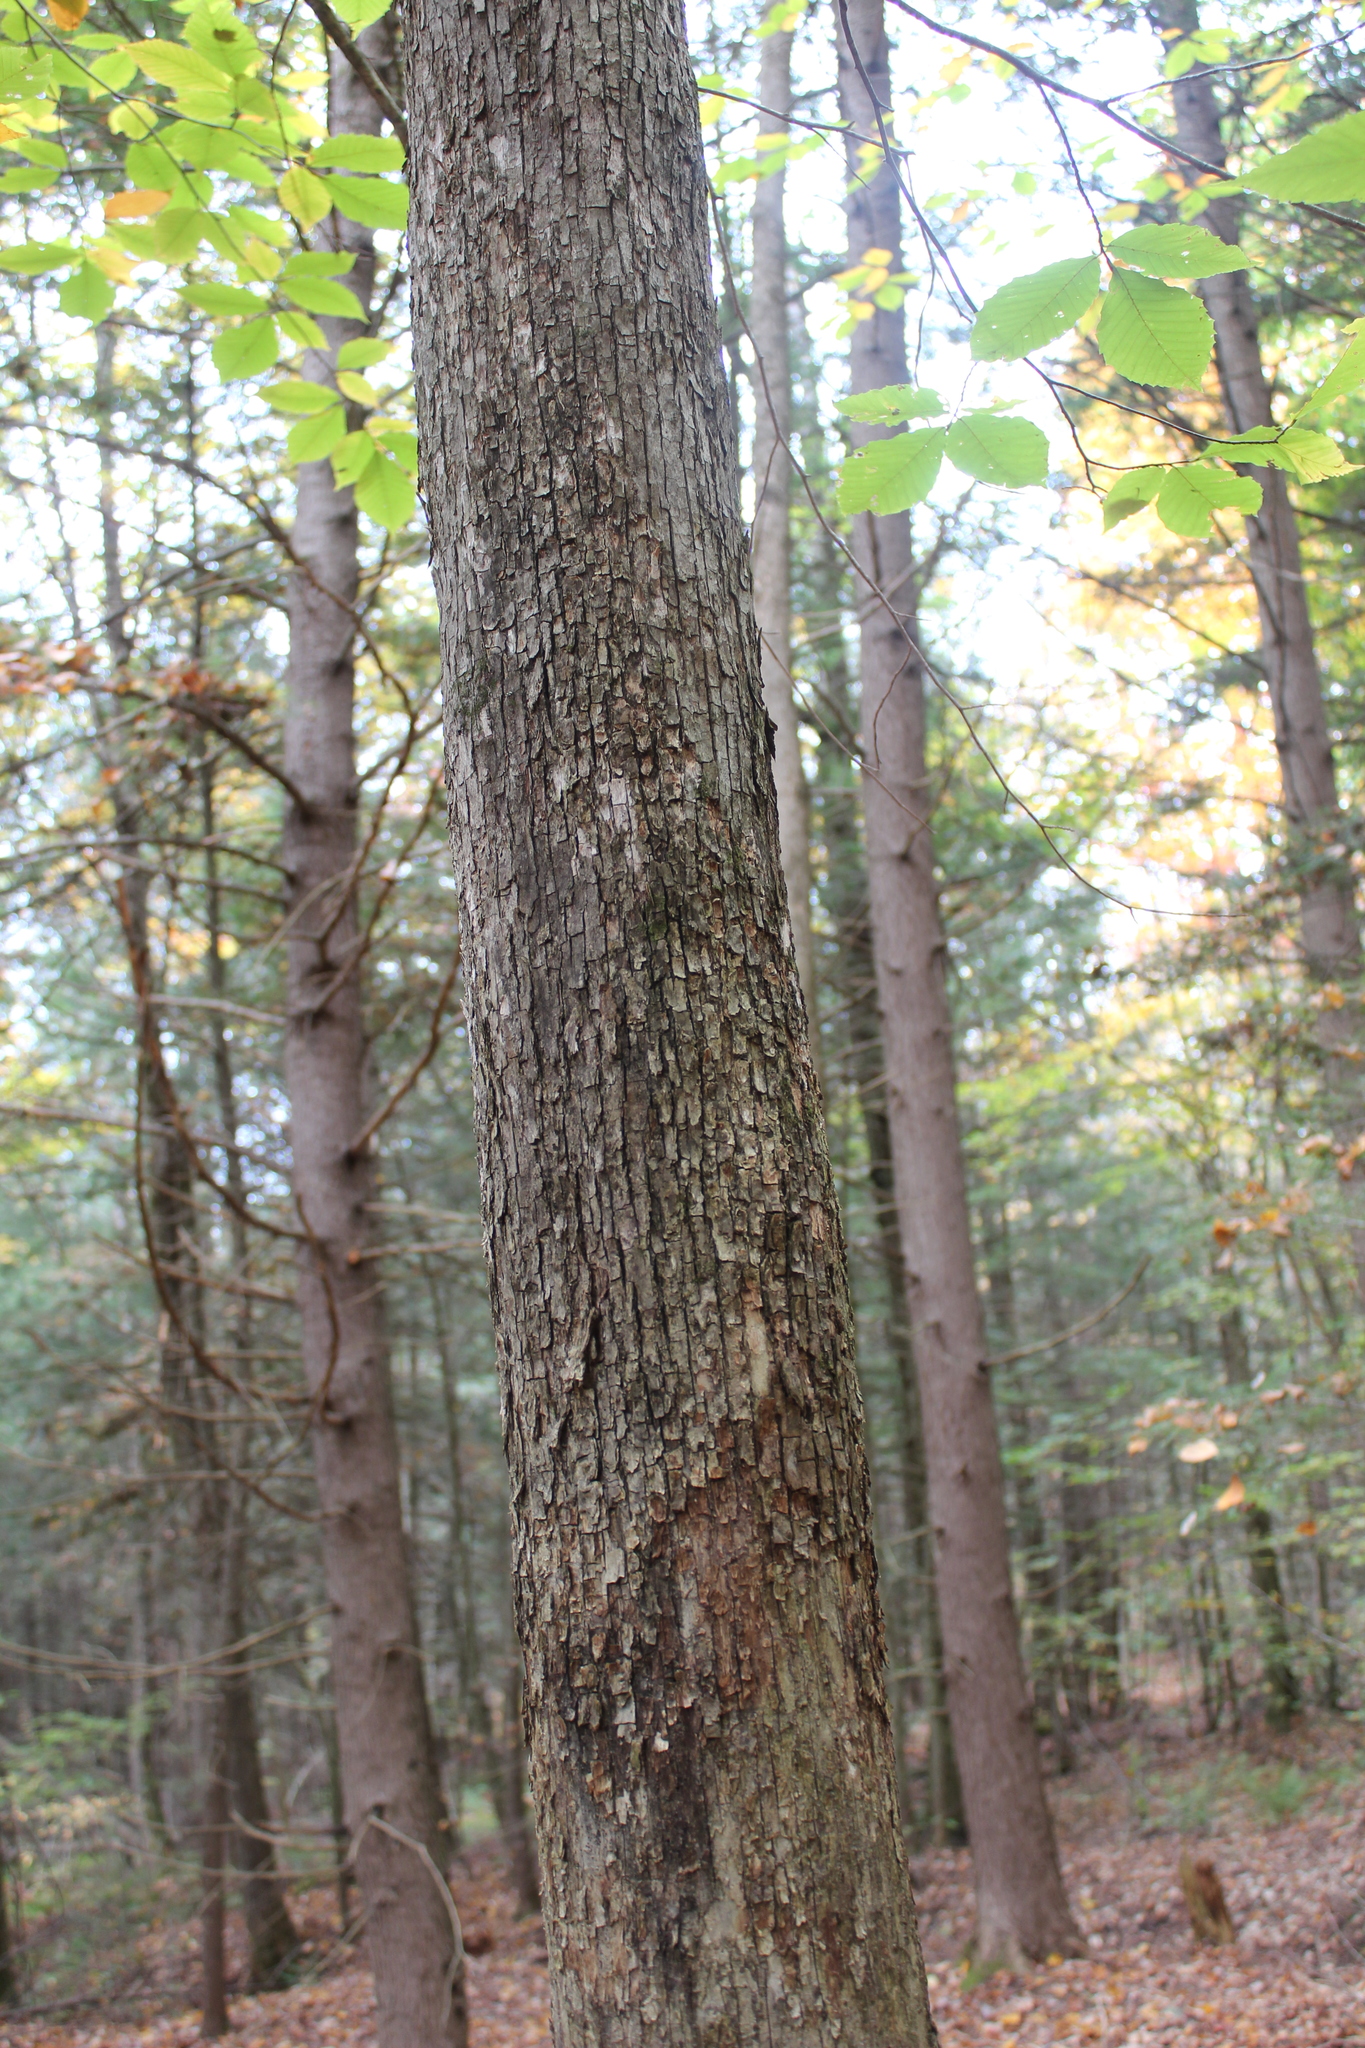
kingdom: Plantae
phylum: Tracheophyta
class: Magnoliopsida
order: Fagales
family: Betulaceae
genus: Ostrya
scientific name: Ostrya virginiana
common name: Ironwood
